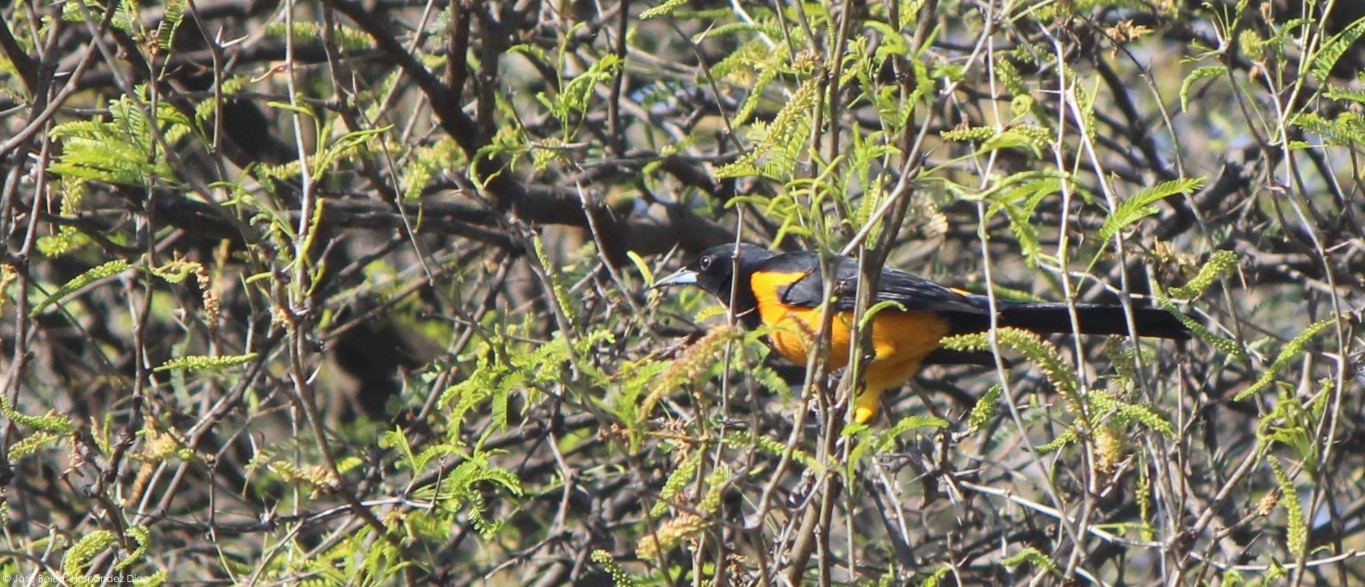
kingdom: Animalia
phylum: Chordata
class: Aves
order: Passeriformes
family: Icteridae
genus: Icterus
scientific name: Icterus wagleri
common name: Black-vented oriole
